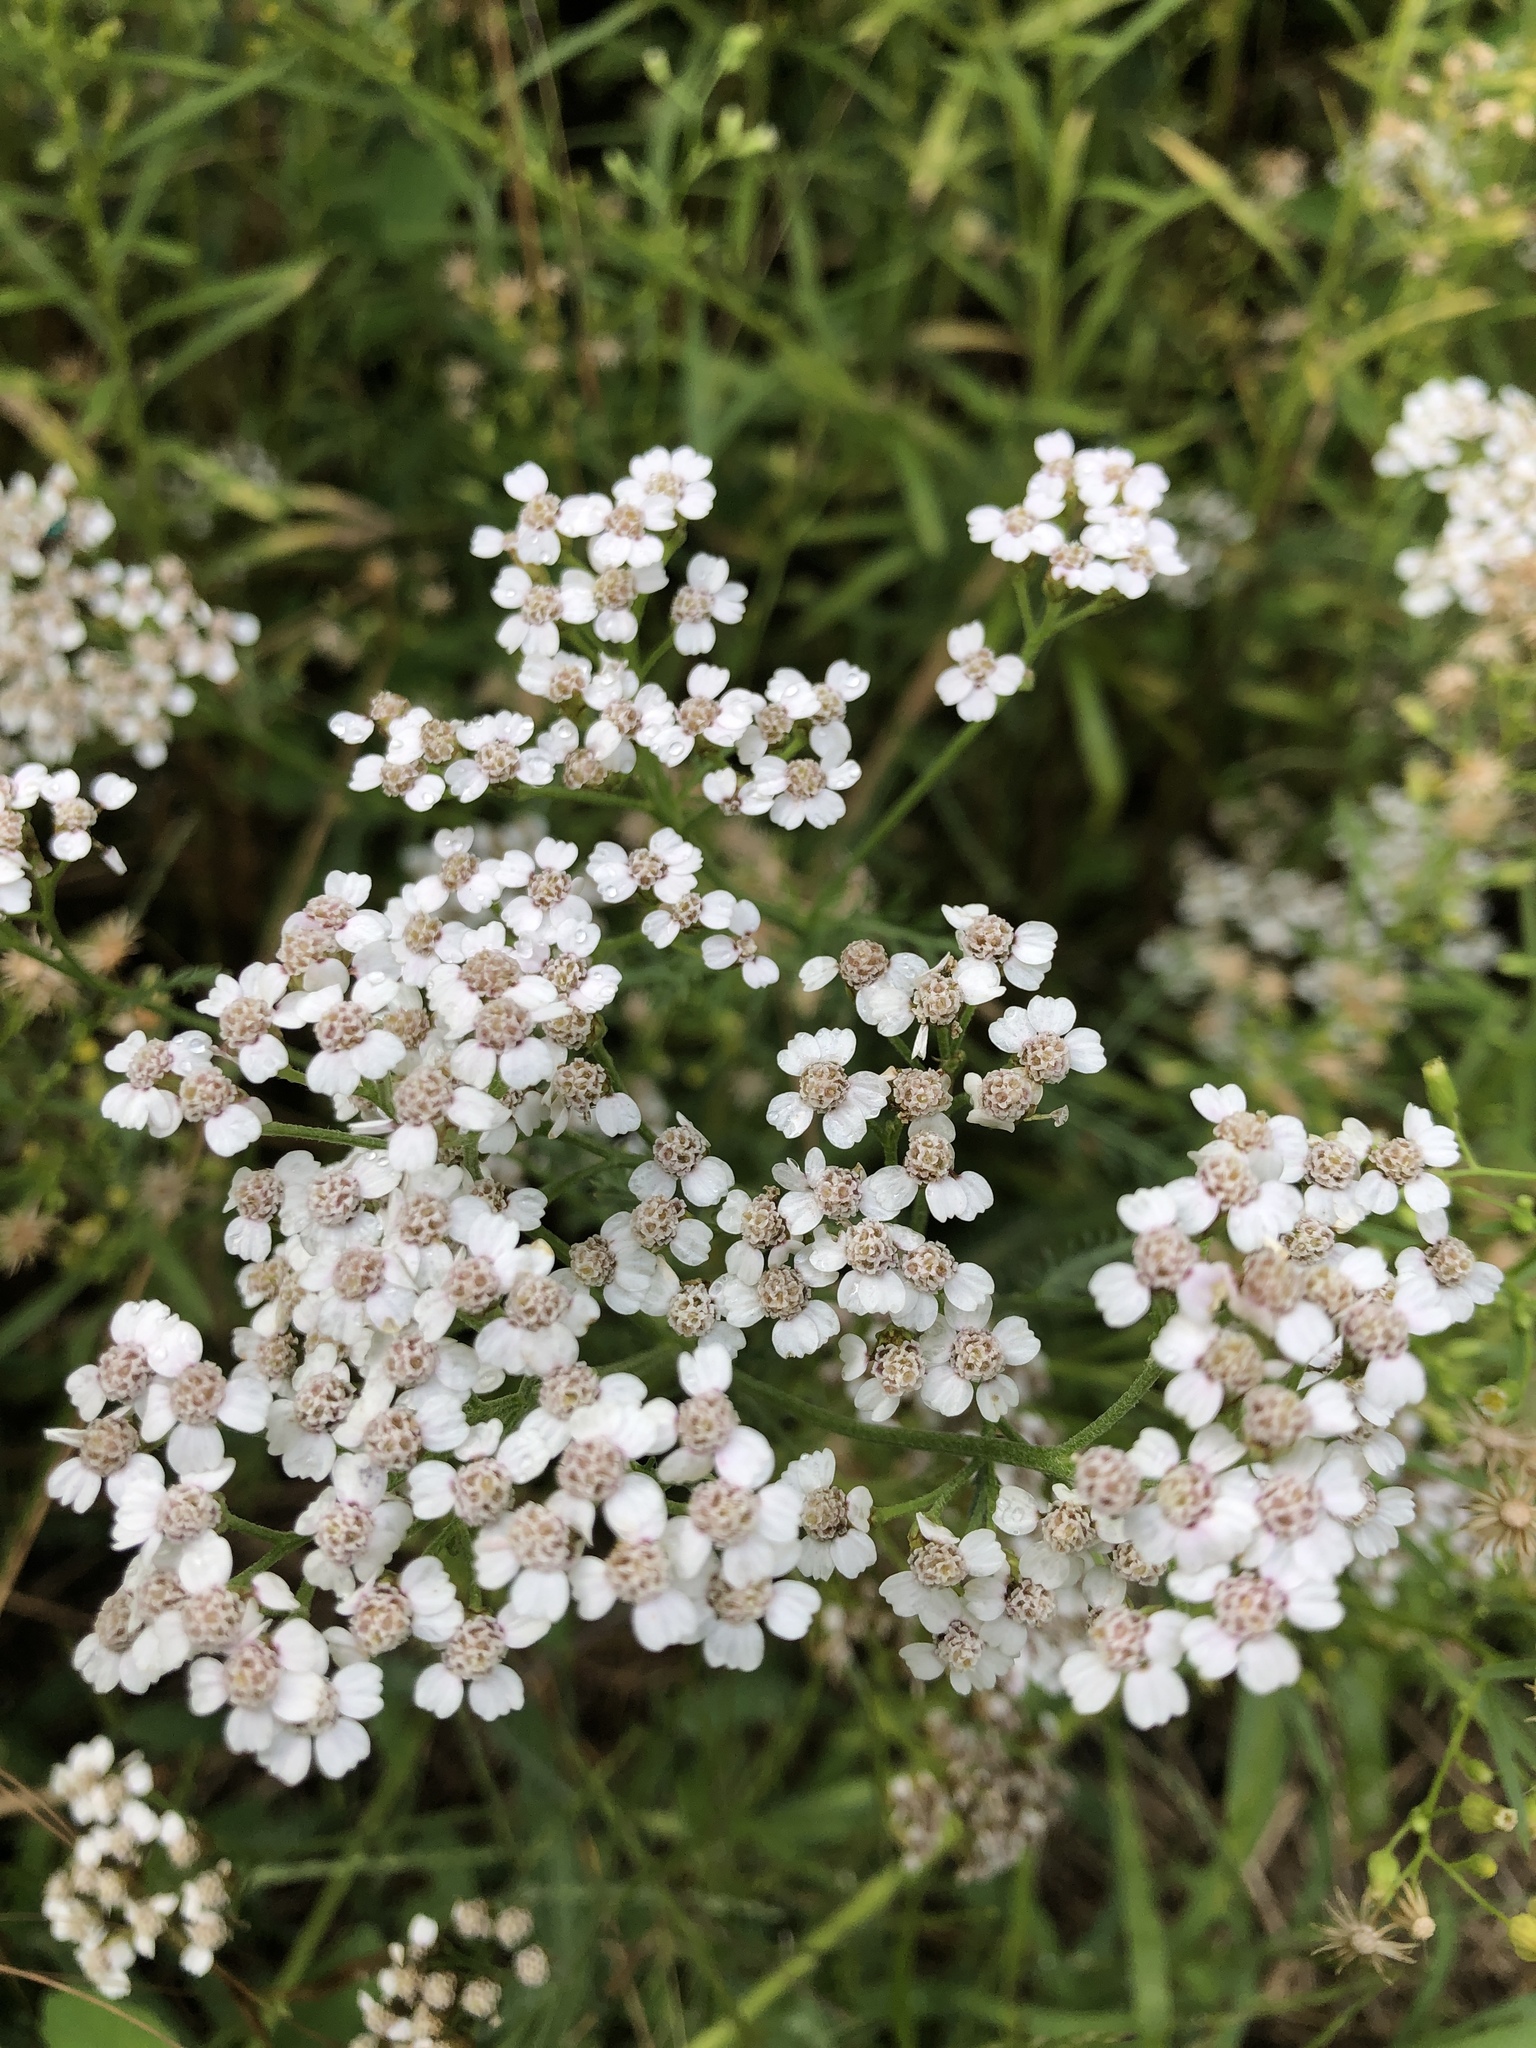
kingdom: Plantae
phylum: Tracheophyta
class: Magnoliopsida
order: Asterales
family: Asteraceae
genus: Achillea
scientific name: Achillea millefolium
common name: Yarrow
